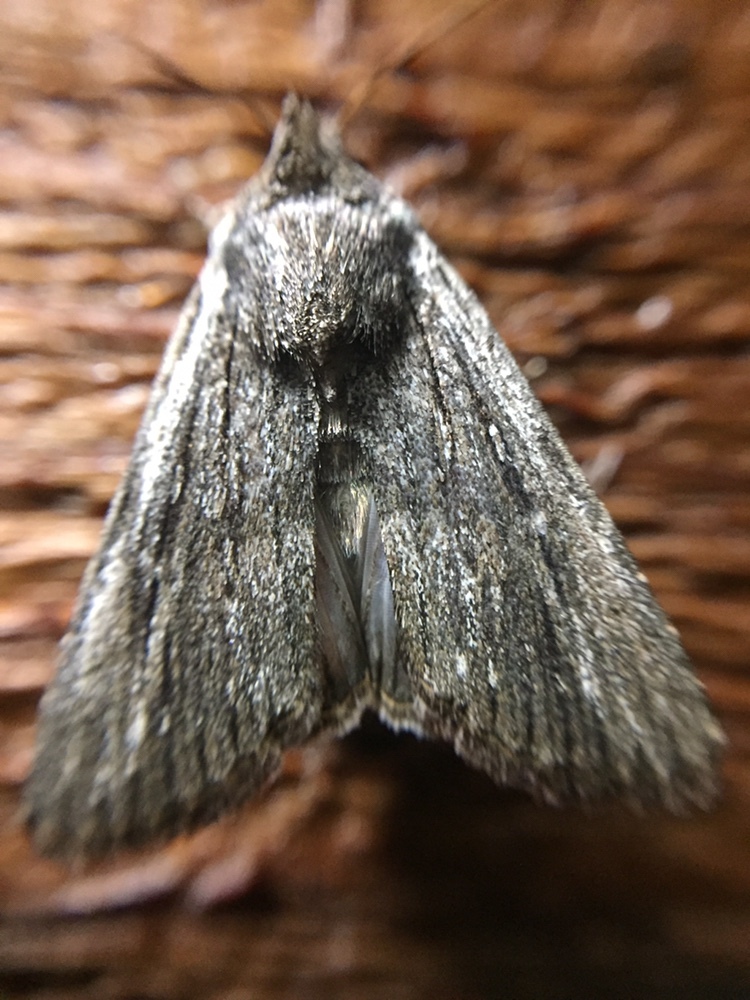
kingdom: Animalia
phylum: Arthropoda
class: Insecta
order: Lepidoptera
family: Noctuidae
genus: Neogalea
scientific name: Neogalea sunia
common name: Lantana stick caterpillar
